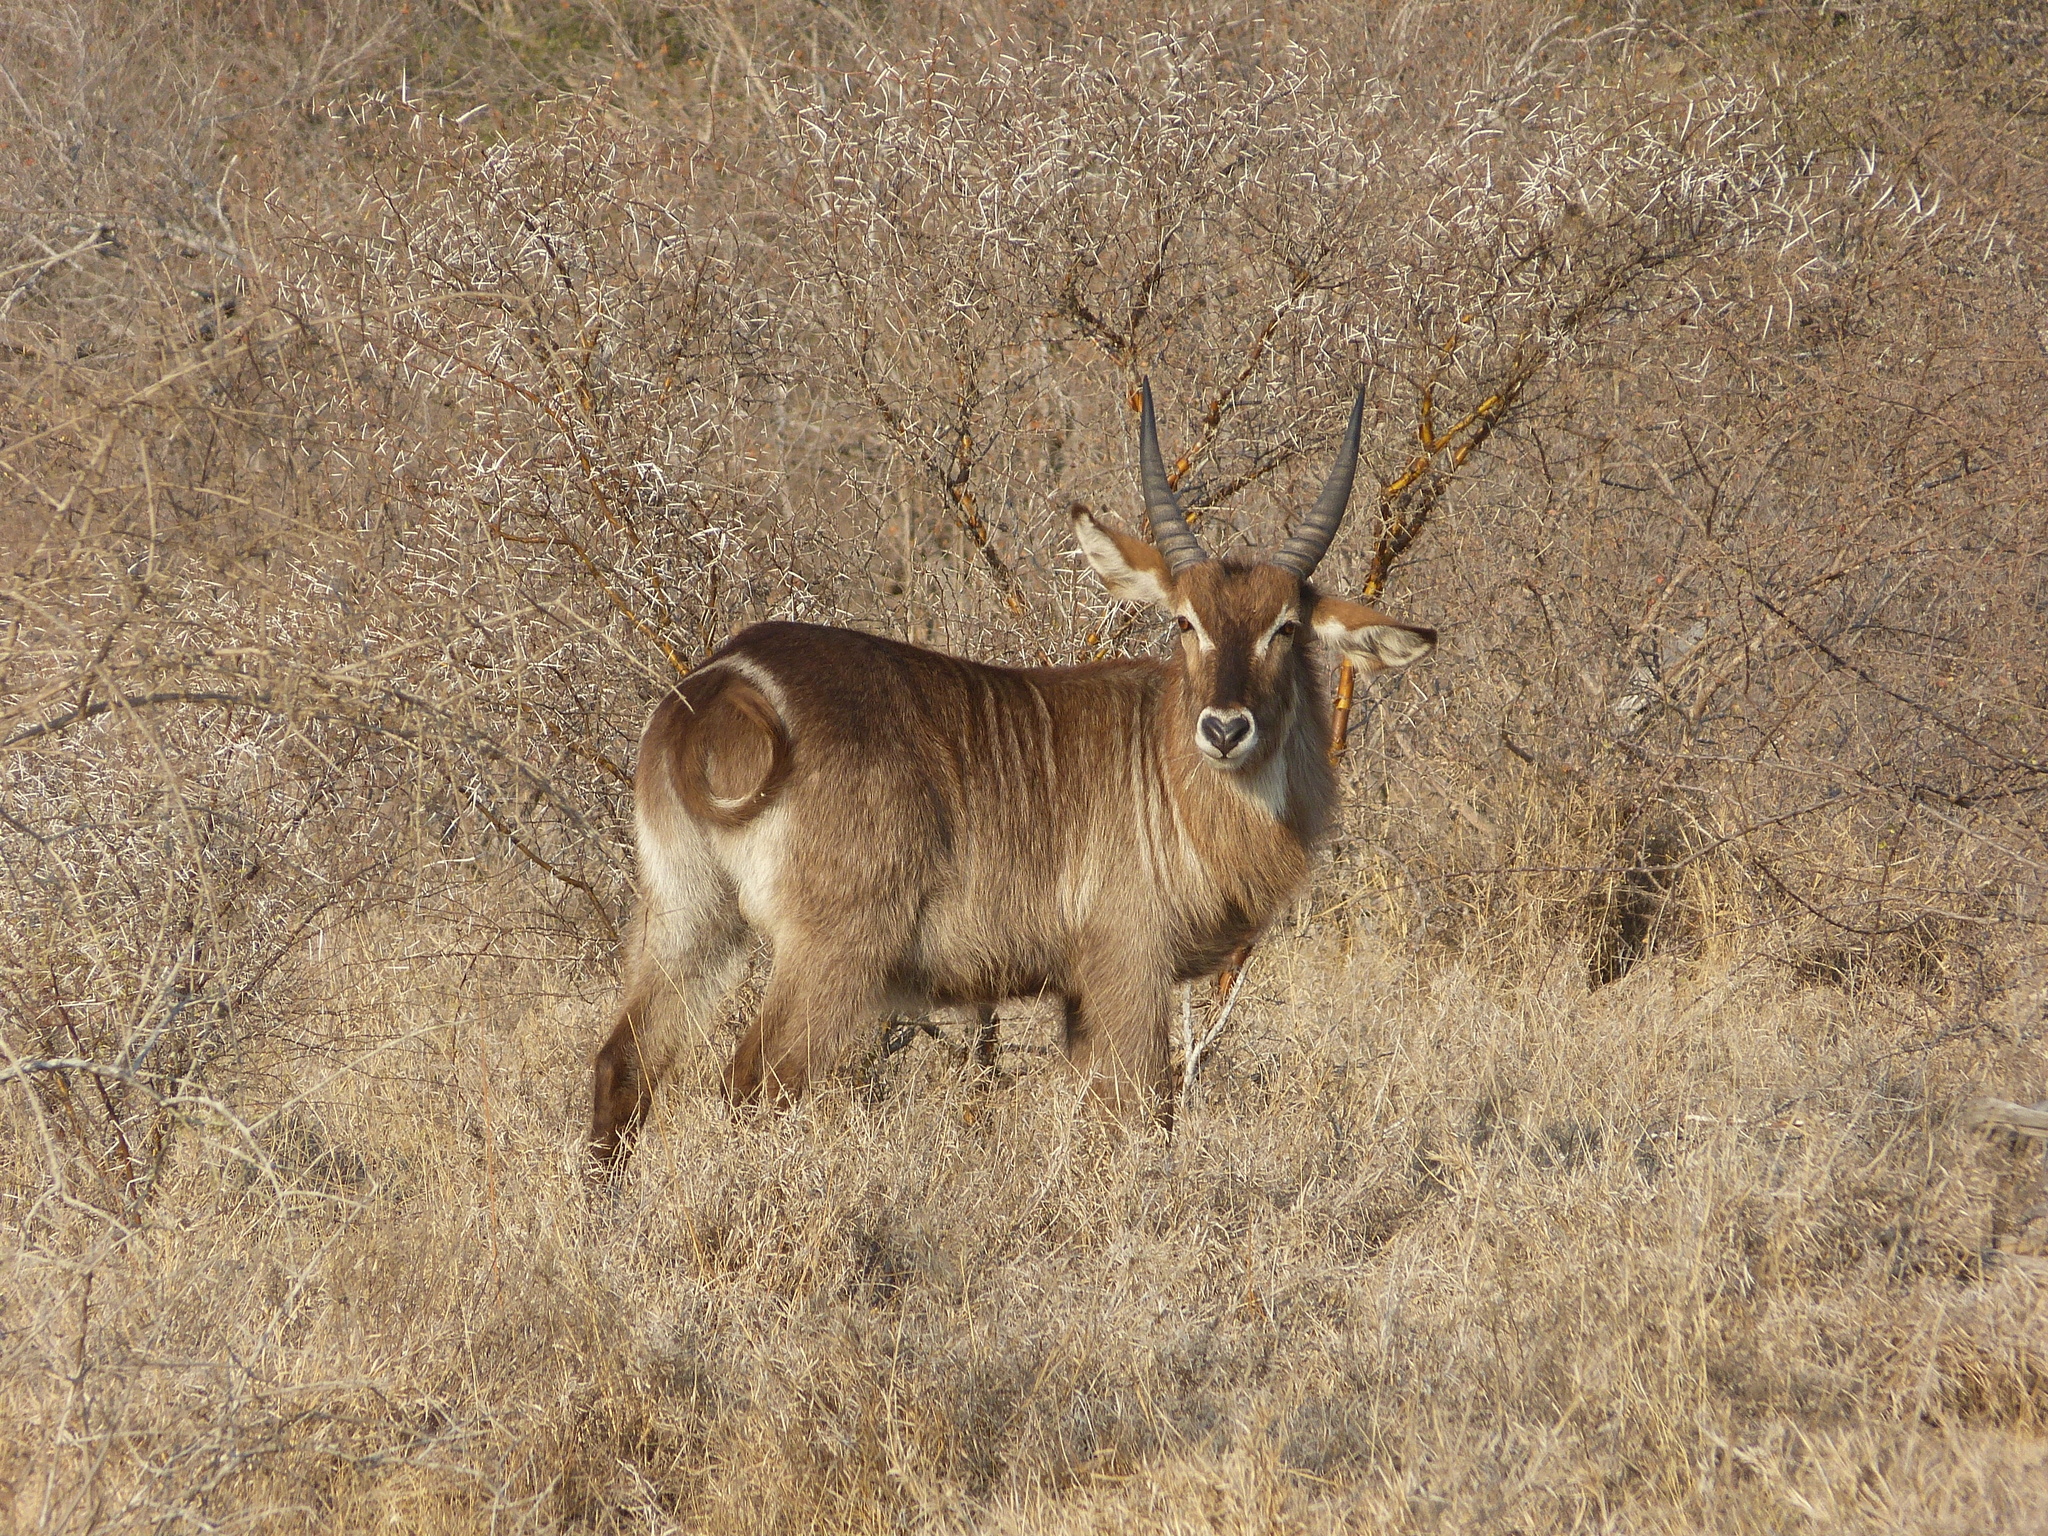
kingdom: Animalia
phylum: Chordata
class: Mammalia
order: Artiodactyla
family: Bovidae
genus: Kobus
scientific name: Kobus ellipsiprymnus
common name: Waterbuck
